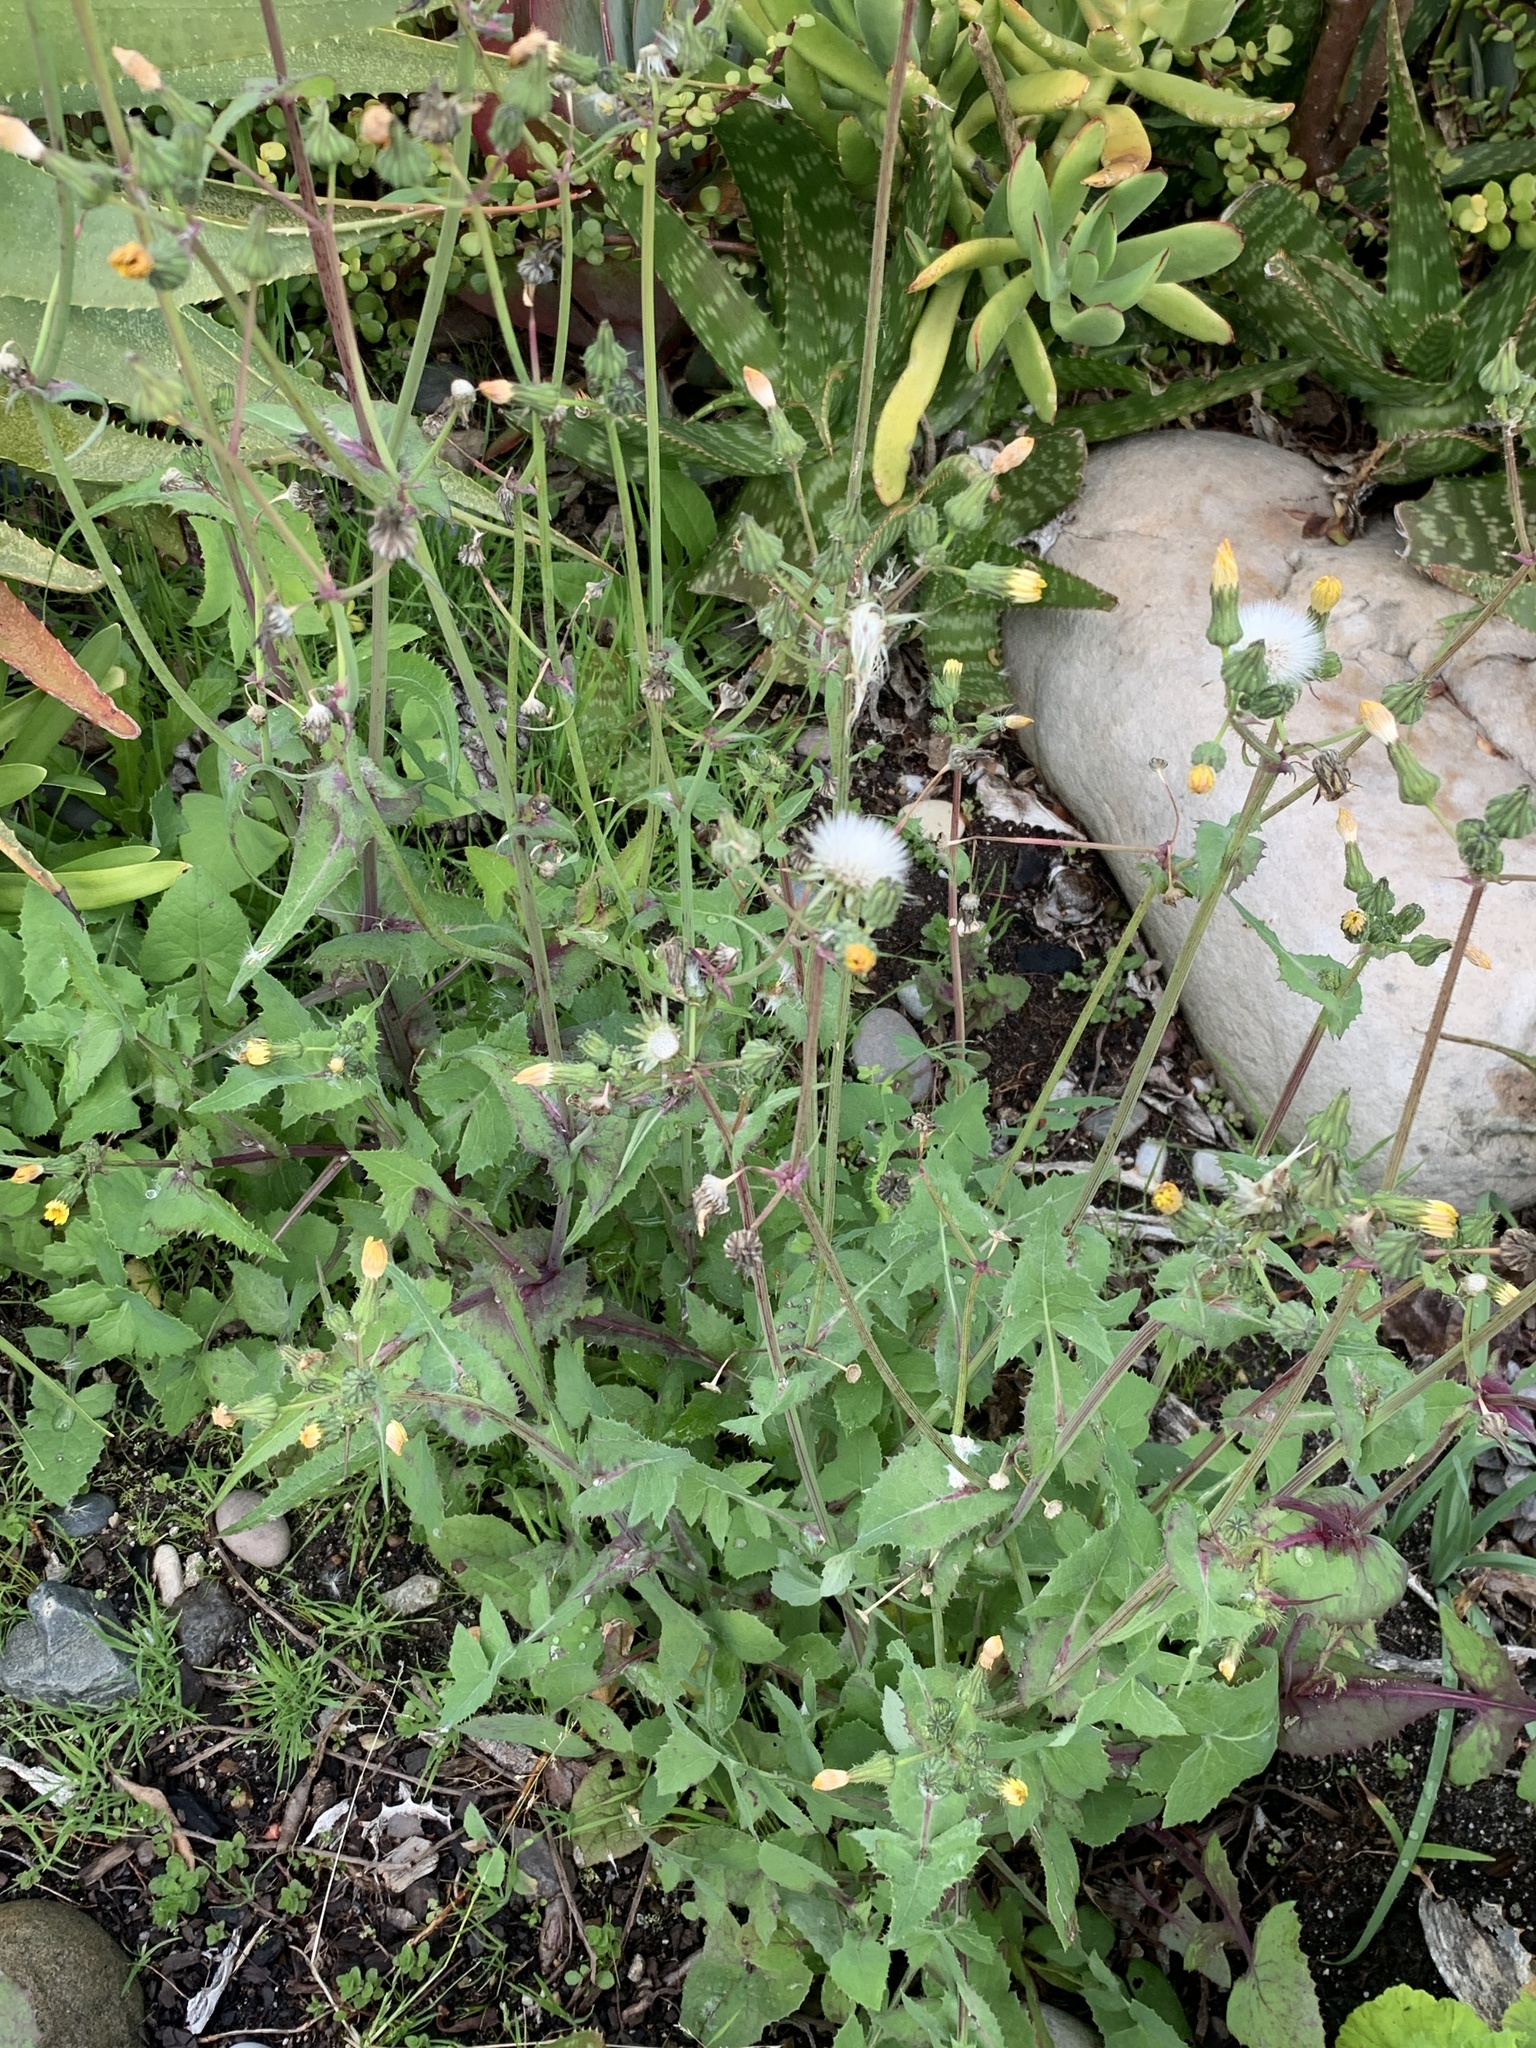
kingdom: Plantae
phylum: Tracheophyta
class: Magnoliopsida
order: Asterales
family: Asteraceae
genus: Sonchus
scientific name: Sonchus oleraceus
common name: Common sowthistle
